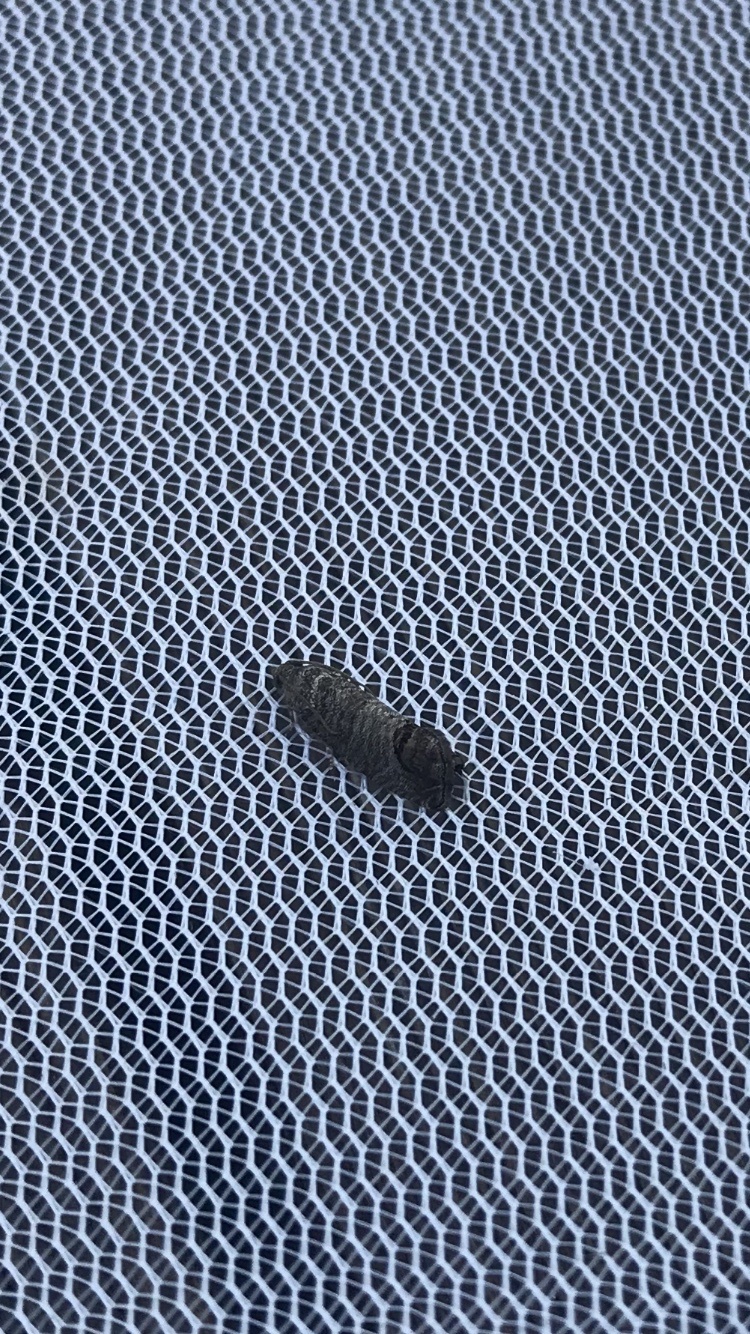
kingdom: Animalia
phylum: Arthropoda
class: Insecta
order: Lepidoptera
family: Tortricidae
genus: Cydia
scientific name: Cydia pomonella
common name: Codling moth
